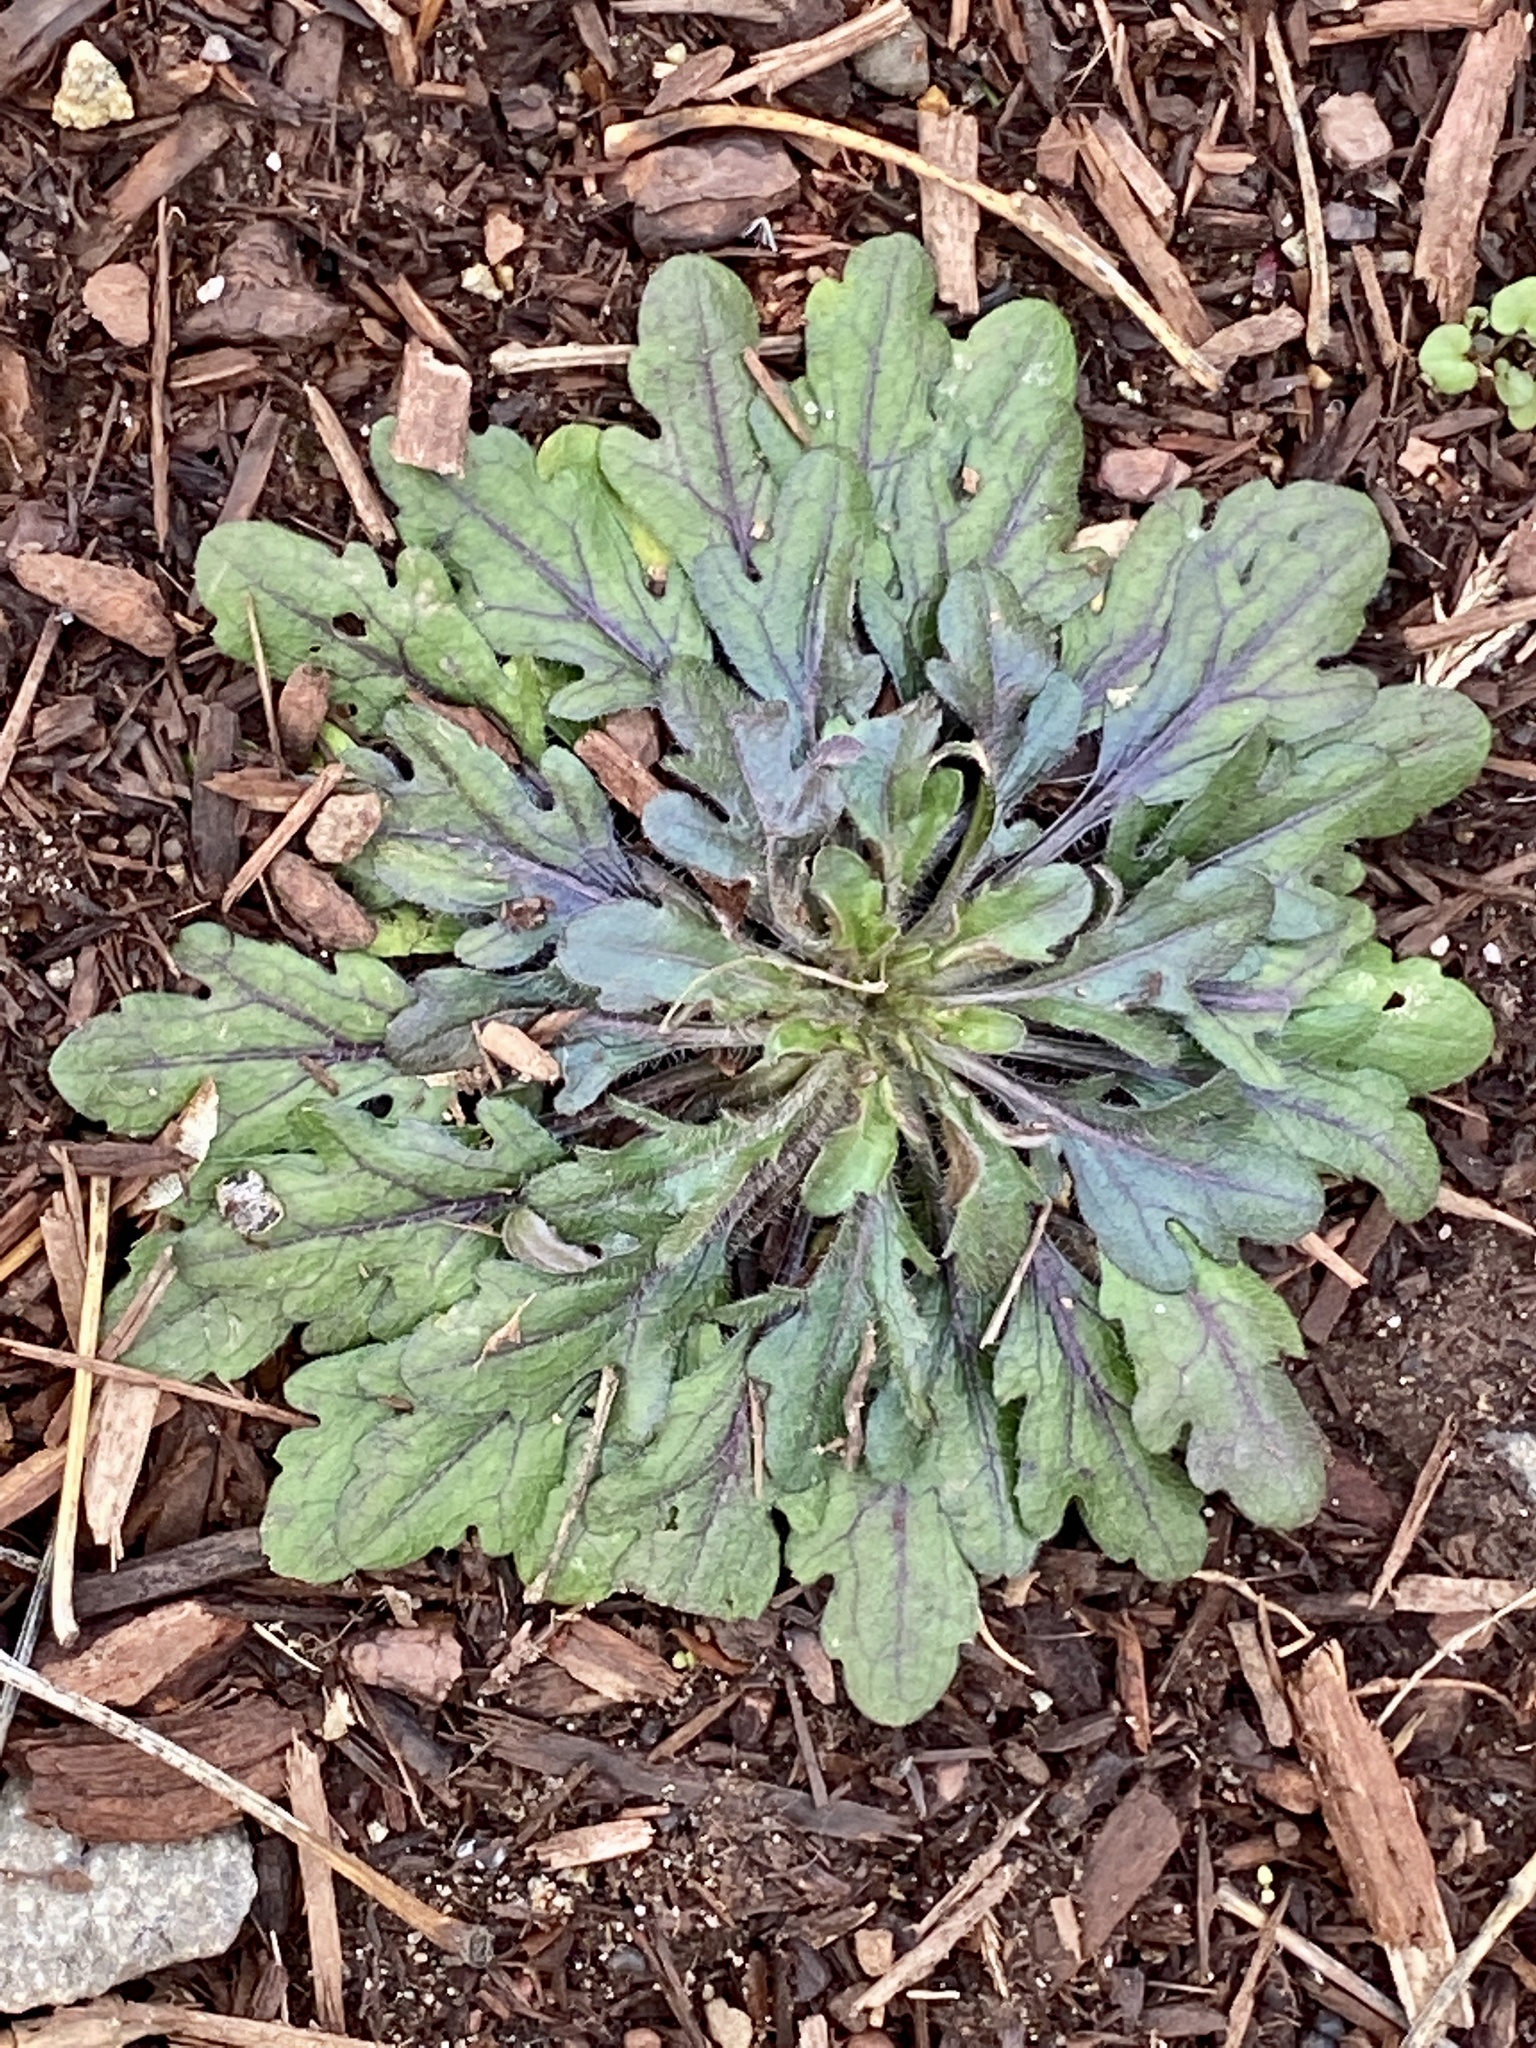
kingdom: Plantae
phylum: Tracheophyta
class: Magnoliopsida
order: Asterales
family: Asteraceae
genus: Erigeron
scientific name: Erigeron canadensis
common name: Canadian fleabane
